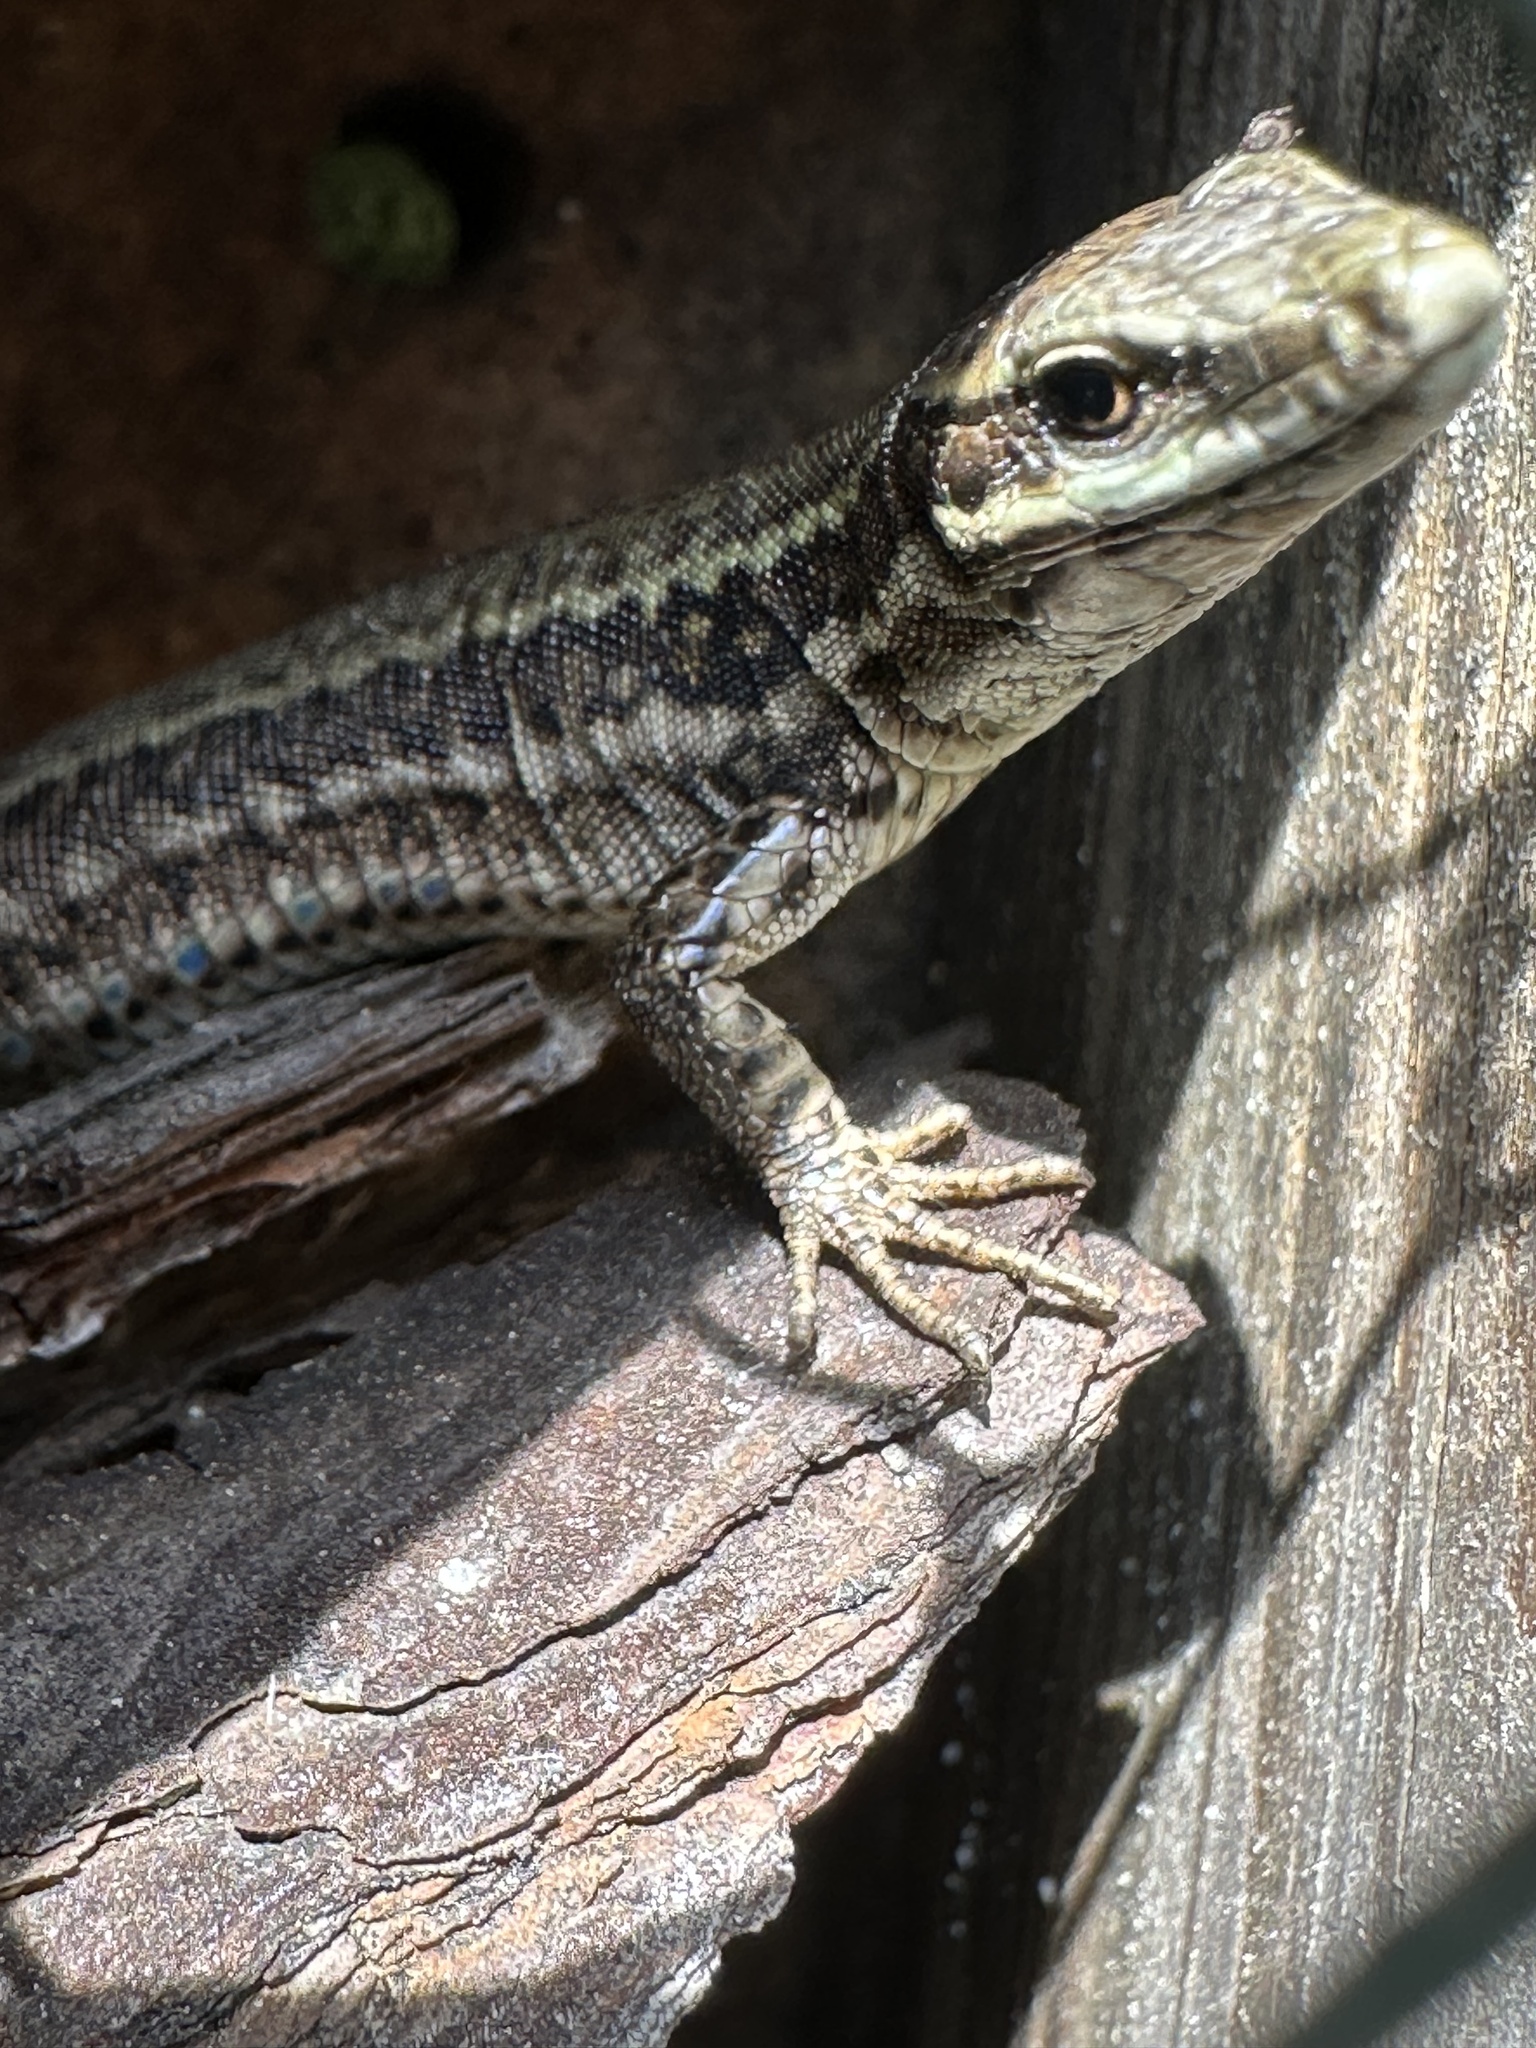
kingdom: Animalia
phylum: Chordata
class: Squamata
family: Lacertidae
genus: Podarcis
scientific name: Podarcis muralis
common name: Common wall lizard
